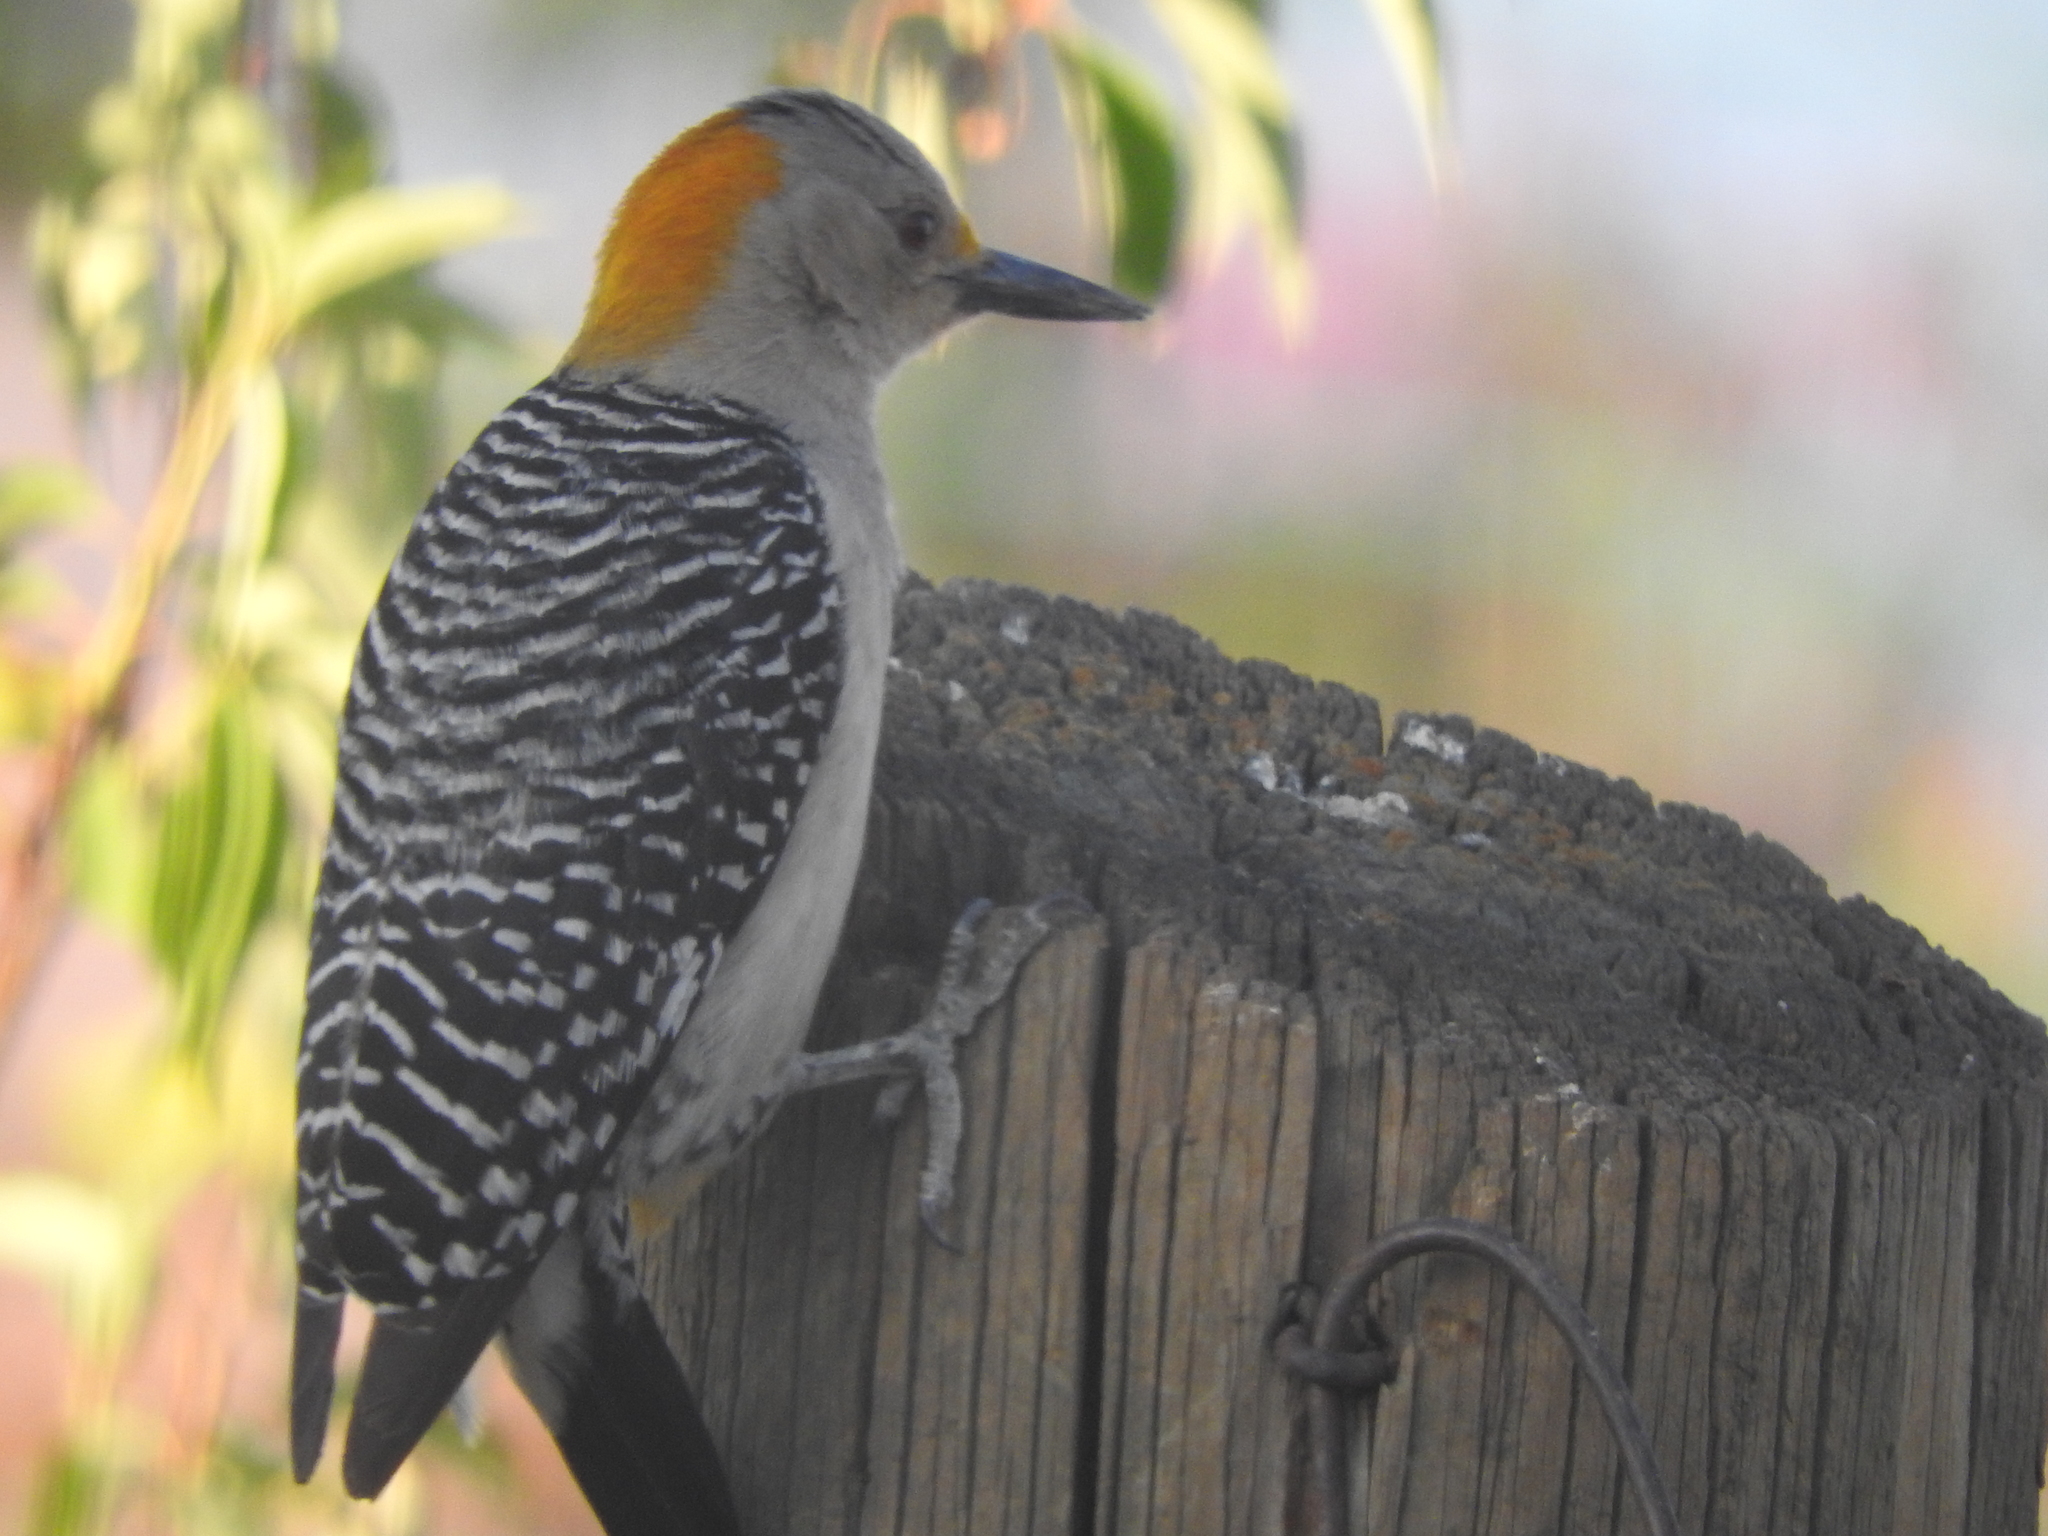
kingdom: Animalia
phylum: Chordata
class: Aves
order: Piciformes
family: Picidae
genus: Melanerpes
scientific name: Melanerpes aurifrons
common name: Golden-fronted woodpecker
